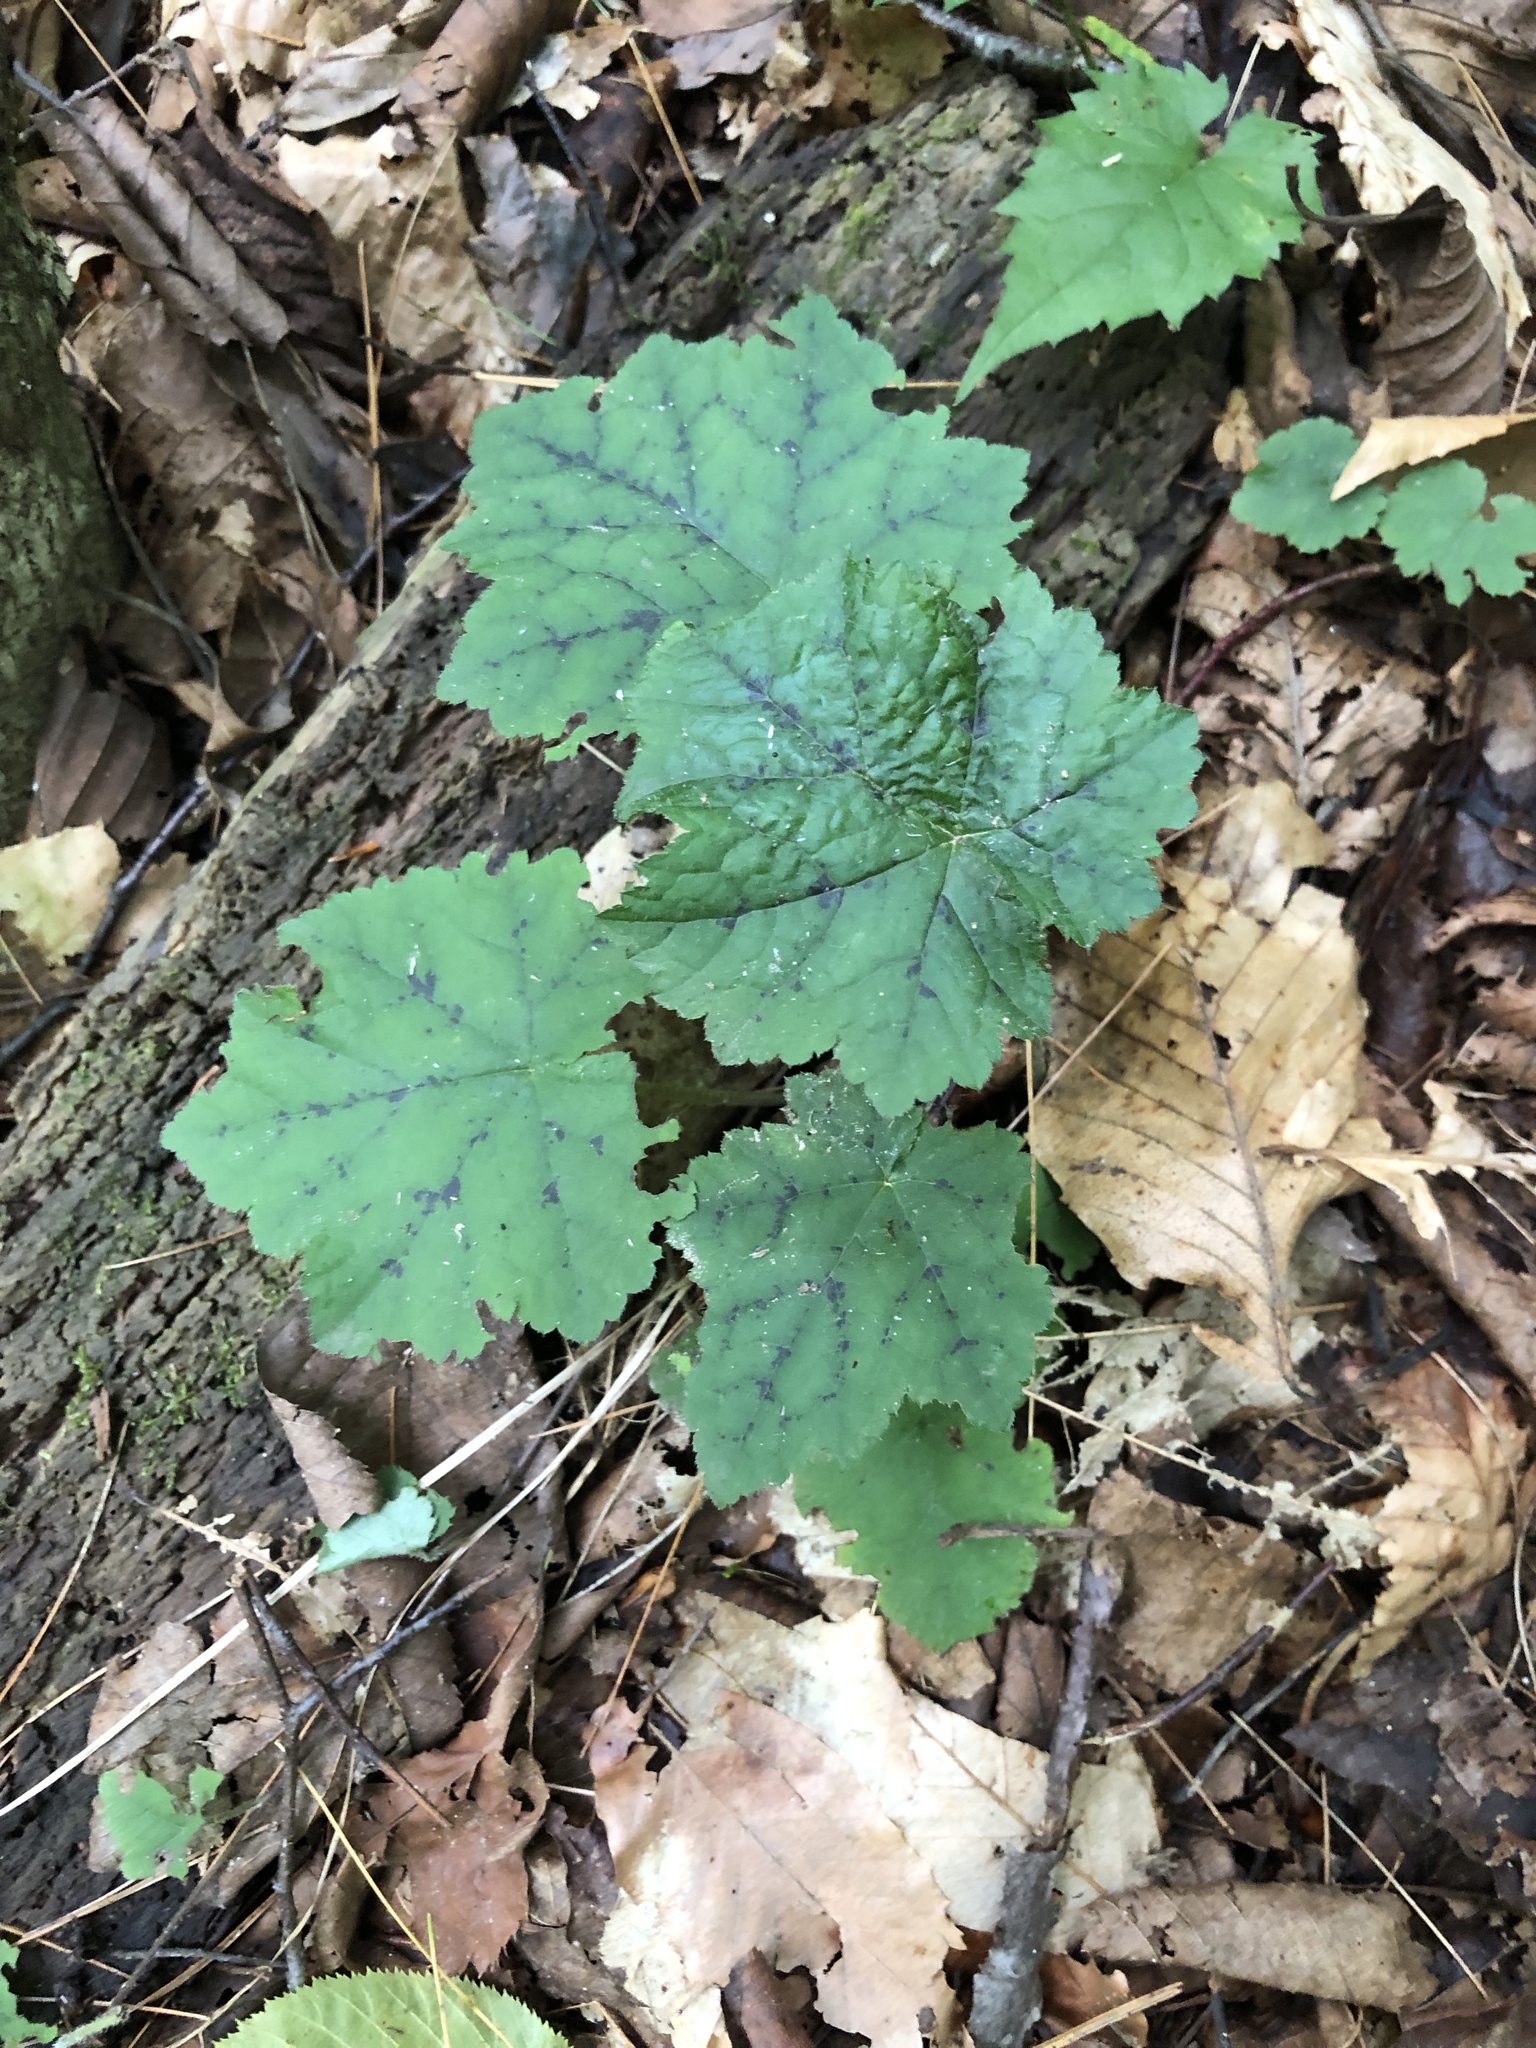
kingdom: Plantae
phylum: Tracheophyta
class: Magnoliopsida
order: Saxifragales
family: Saxifragaceae
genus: Tiarella
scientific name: Tiarella stolonifera
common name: Stoloniferous foamflower
